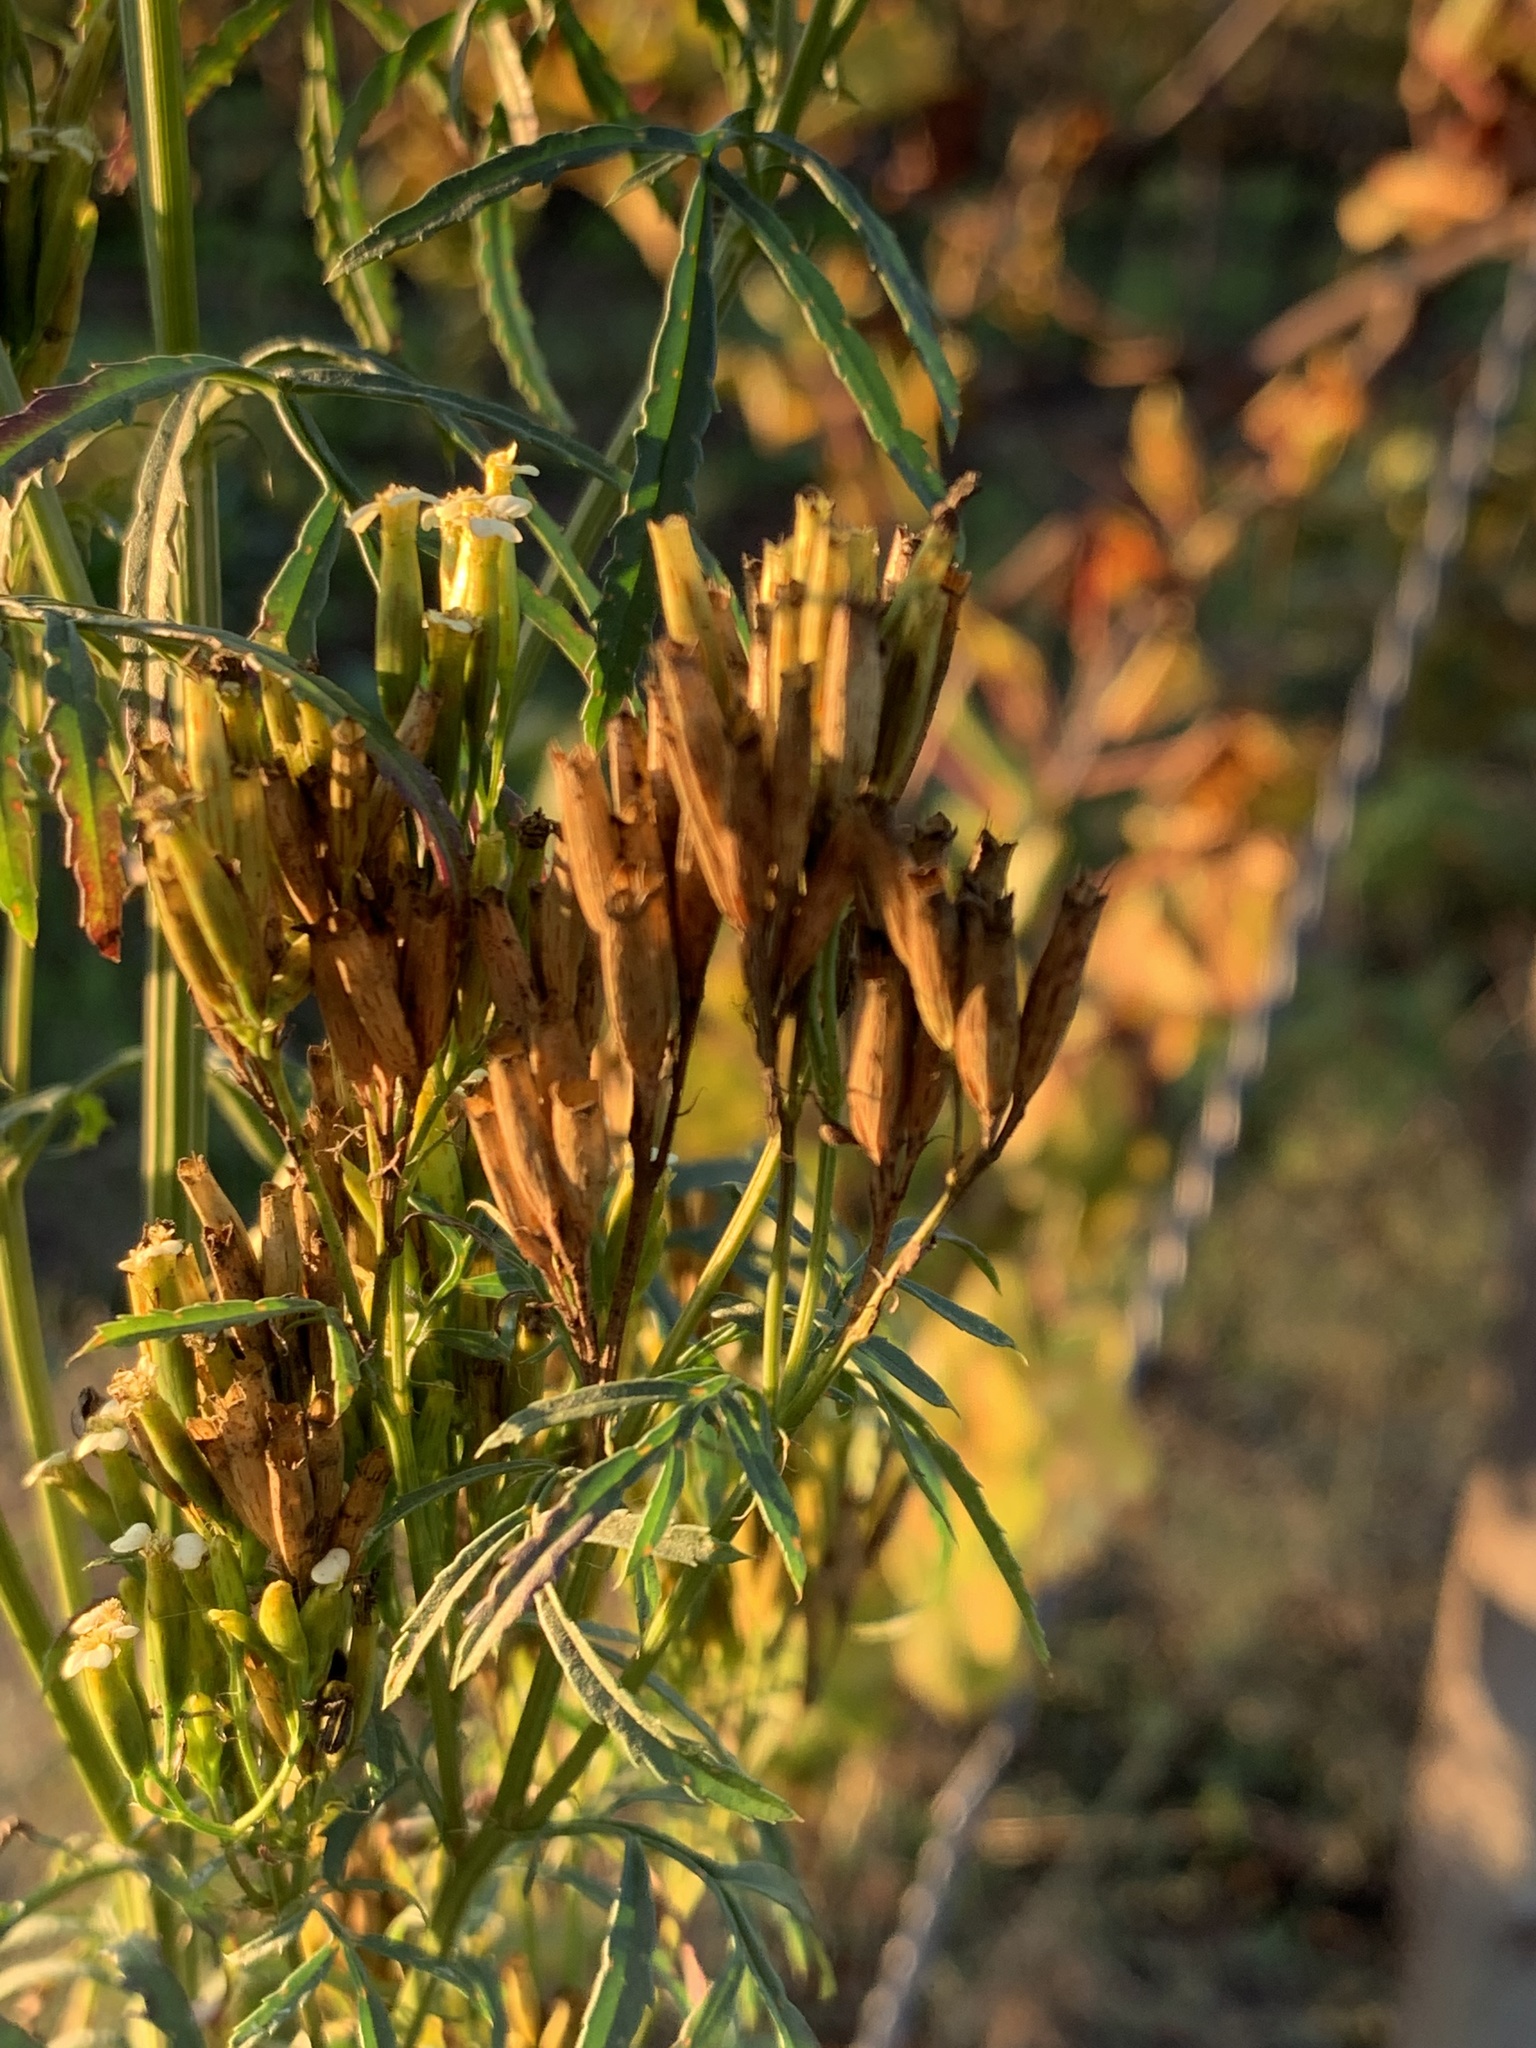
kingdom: Plantae
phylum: Tracheophyta
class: Magnoliopsida
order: Asterales
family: Asteraceae
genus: Tagetes
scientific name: Tagetes minuta
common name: Muster john henry
